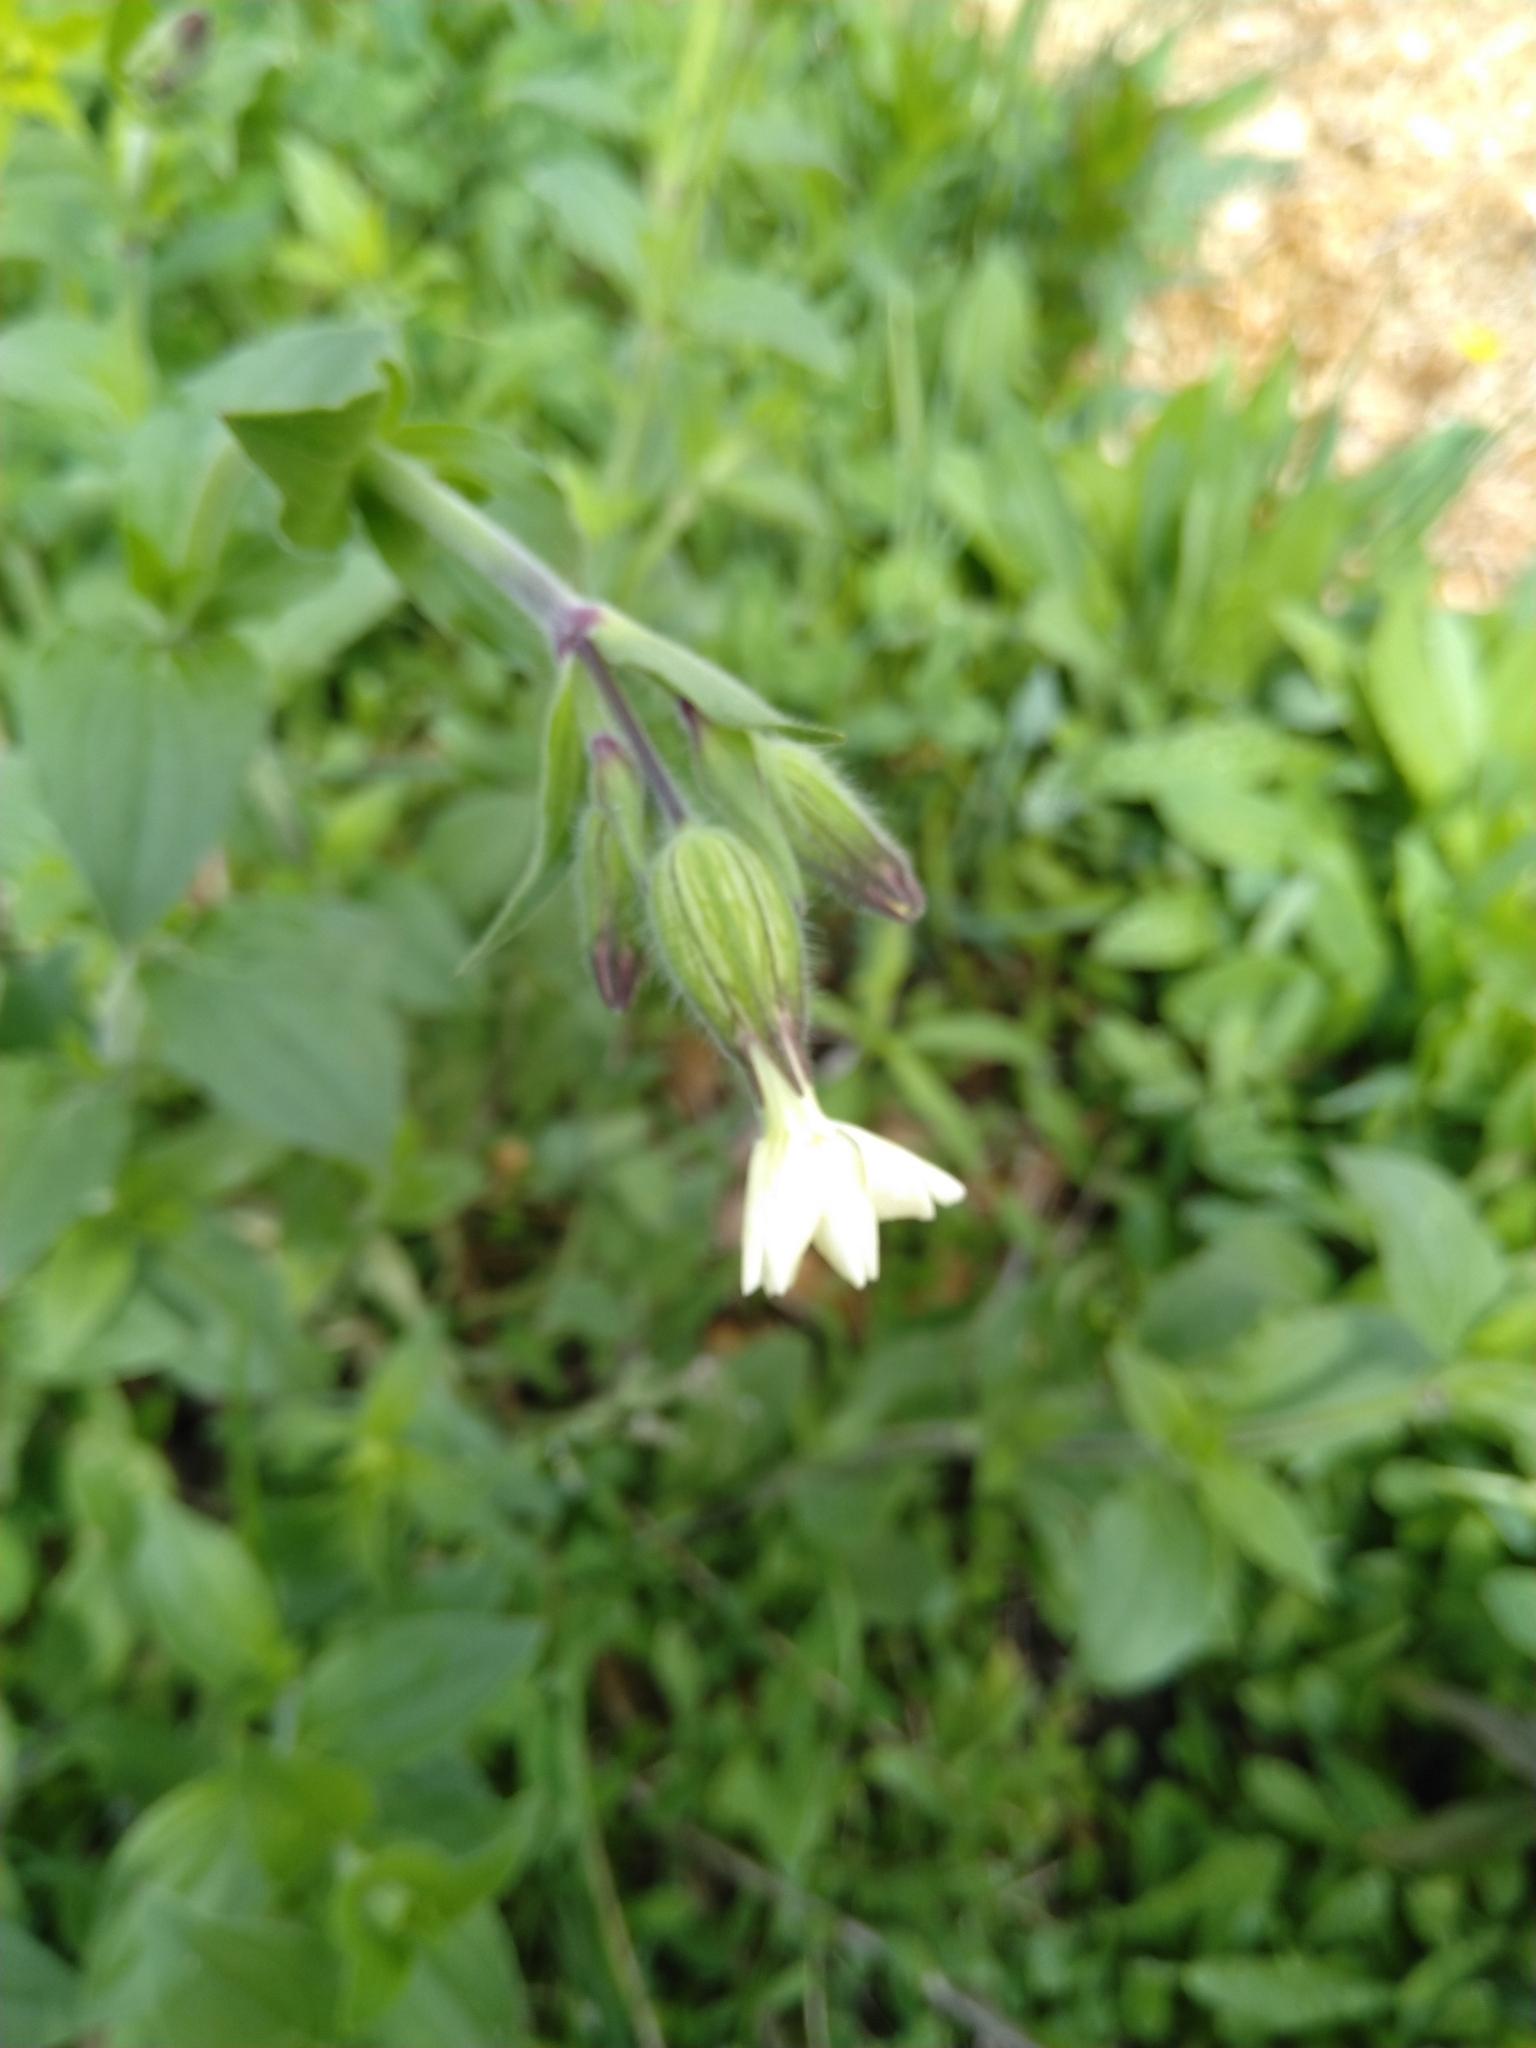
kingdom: Plantae
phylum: Tracheophyta
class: Magnoliopsida
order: Caryophyllales
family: Caryophyllaceae
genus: Silene
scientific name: Silene latifolia
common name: White campion
